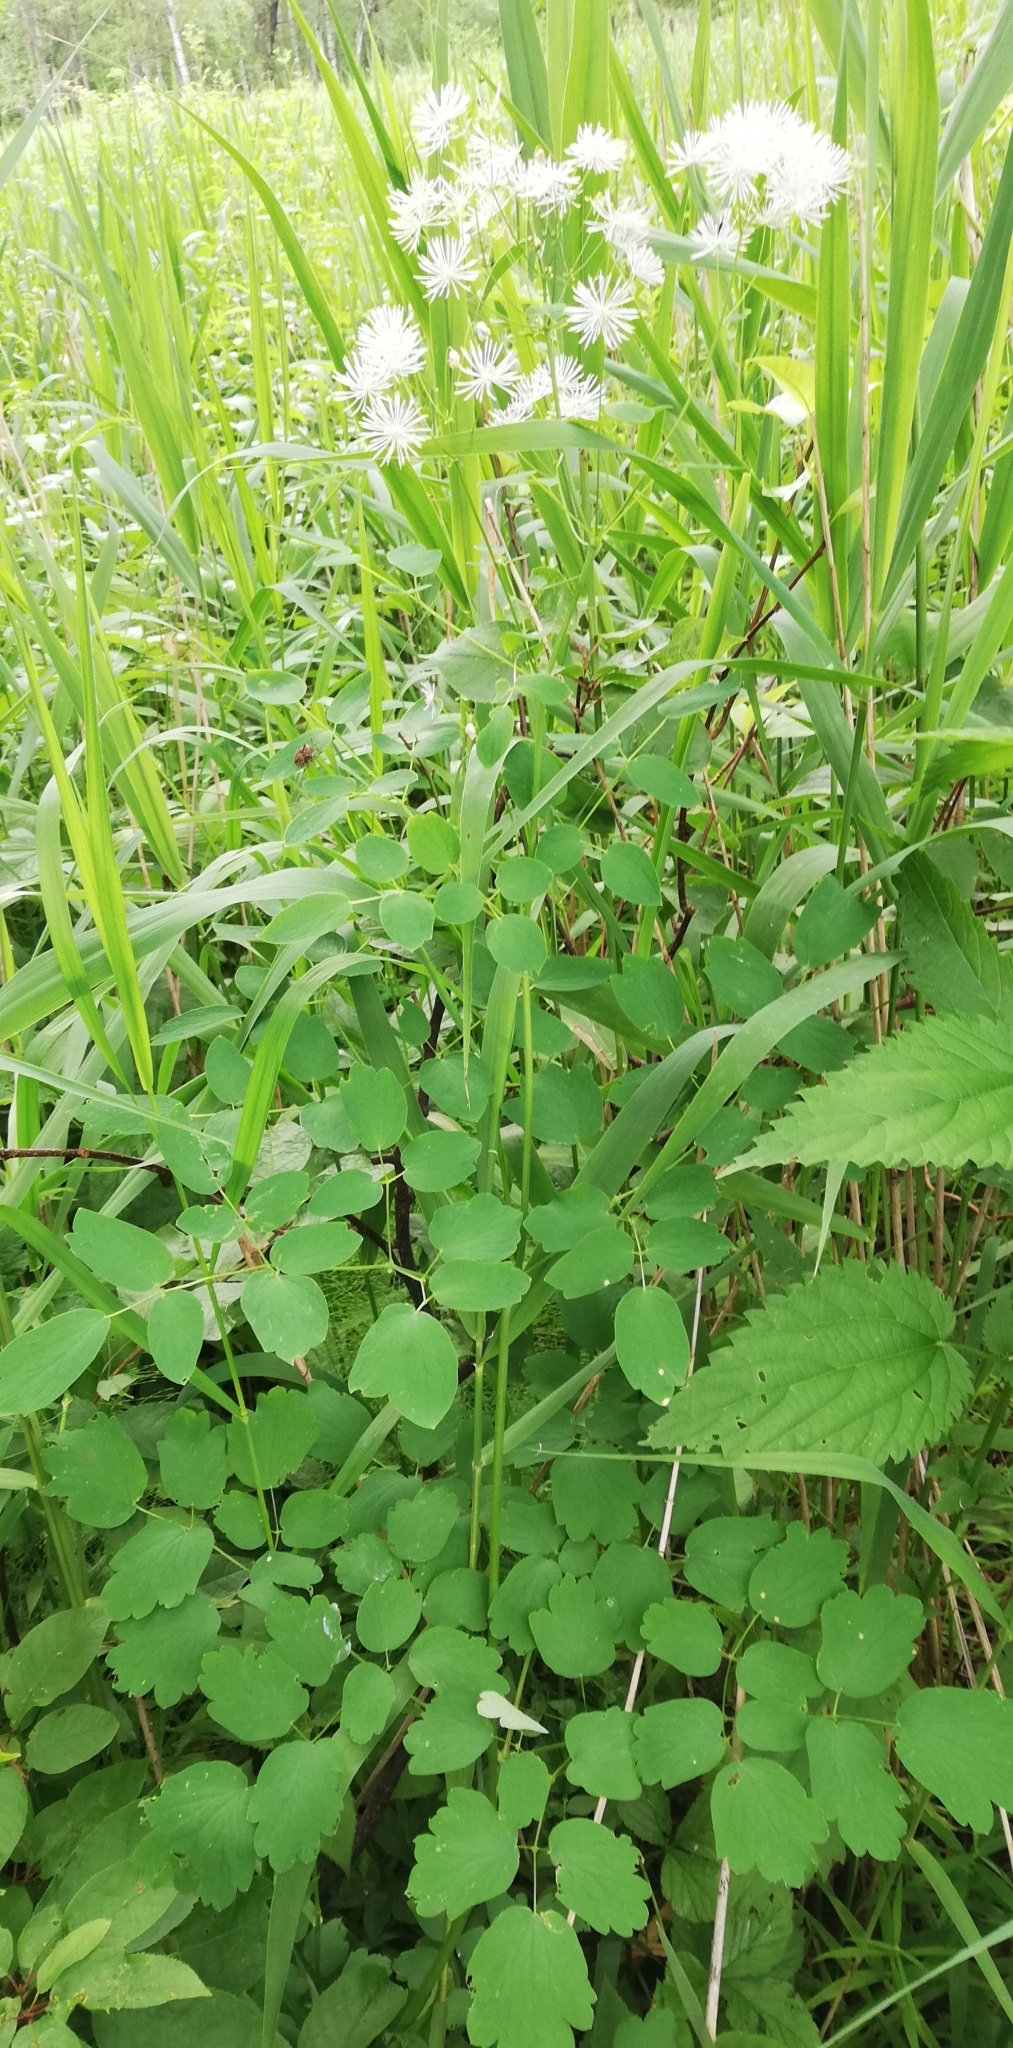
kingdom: Plantae
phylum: Tracheophyta
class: Magnoliopsida
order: Ranunculales
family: Ranunculaceae
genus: Thalictrum
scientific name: Thalictrum aquilegiifolium
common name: French meadow-rue
